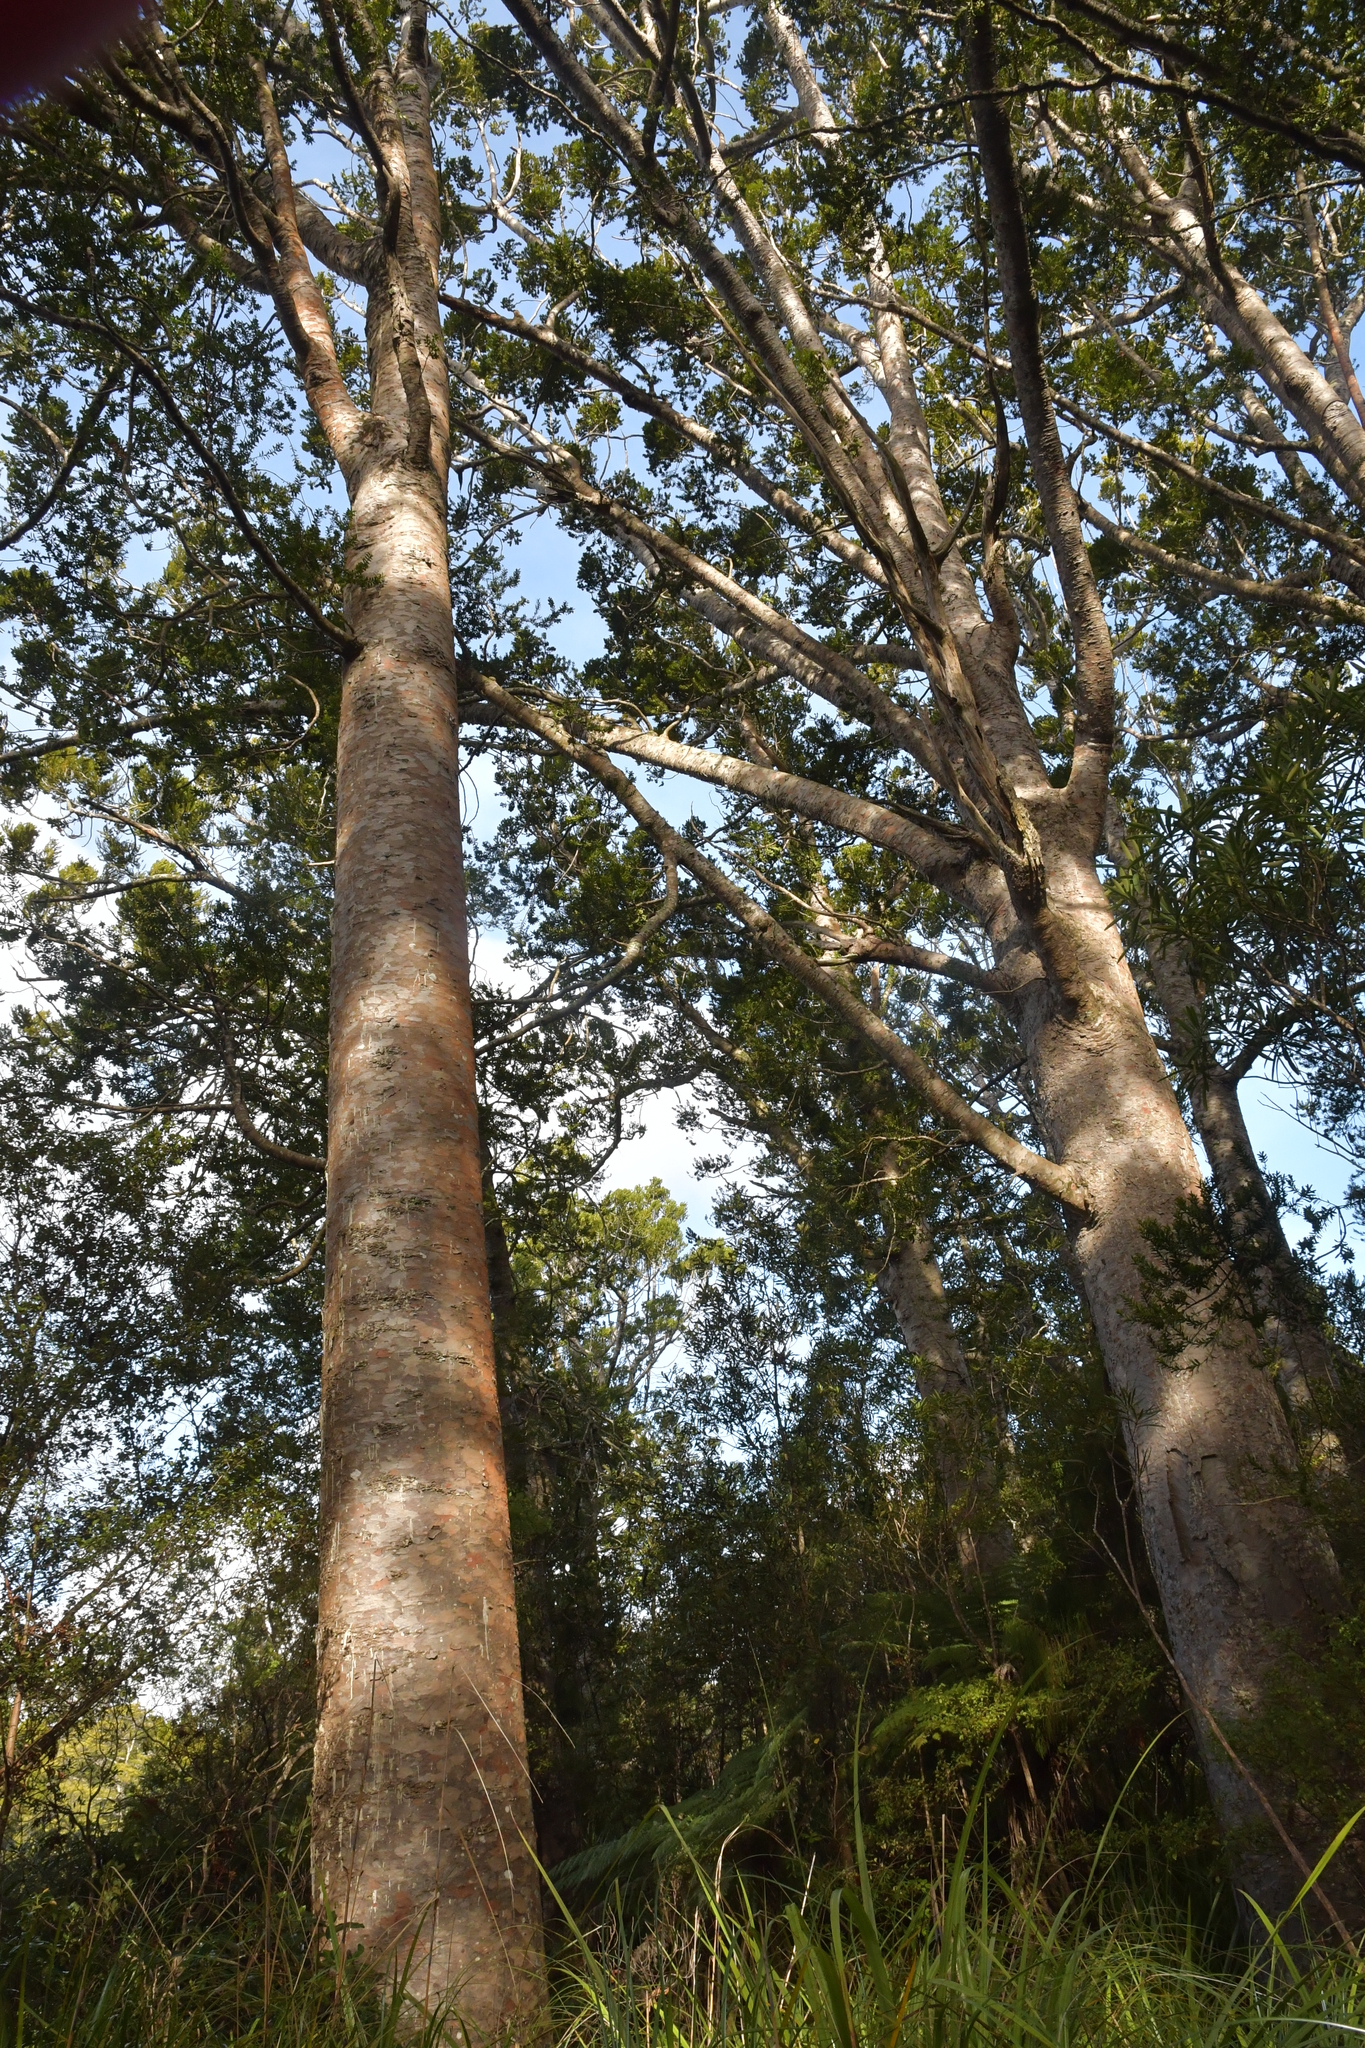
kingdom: Plantae
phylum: Tracheophyta
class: Pinopsida
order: Pinales
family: Araucariaceae
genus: Agathis
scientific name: Agathis australis
